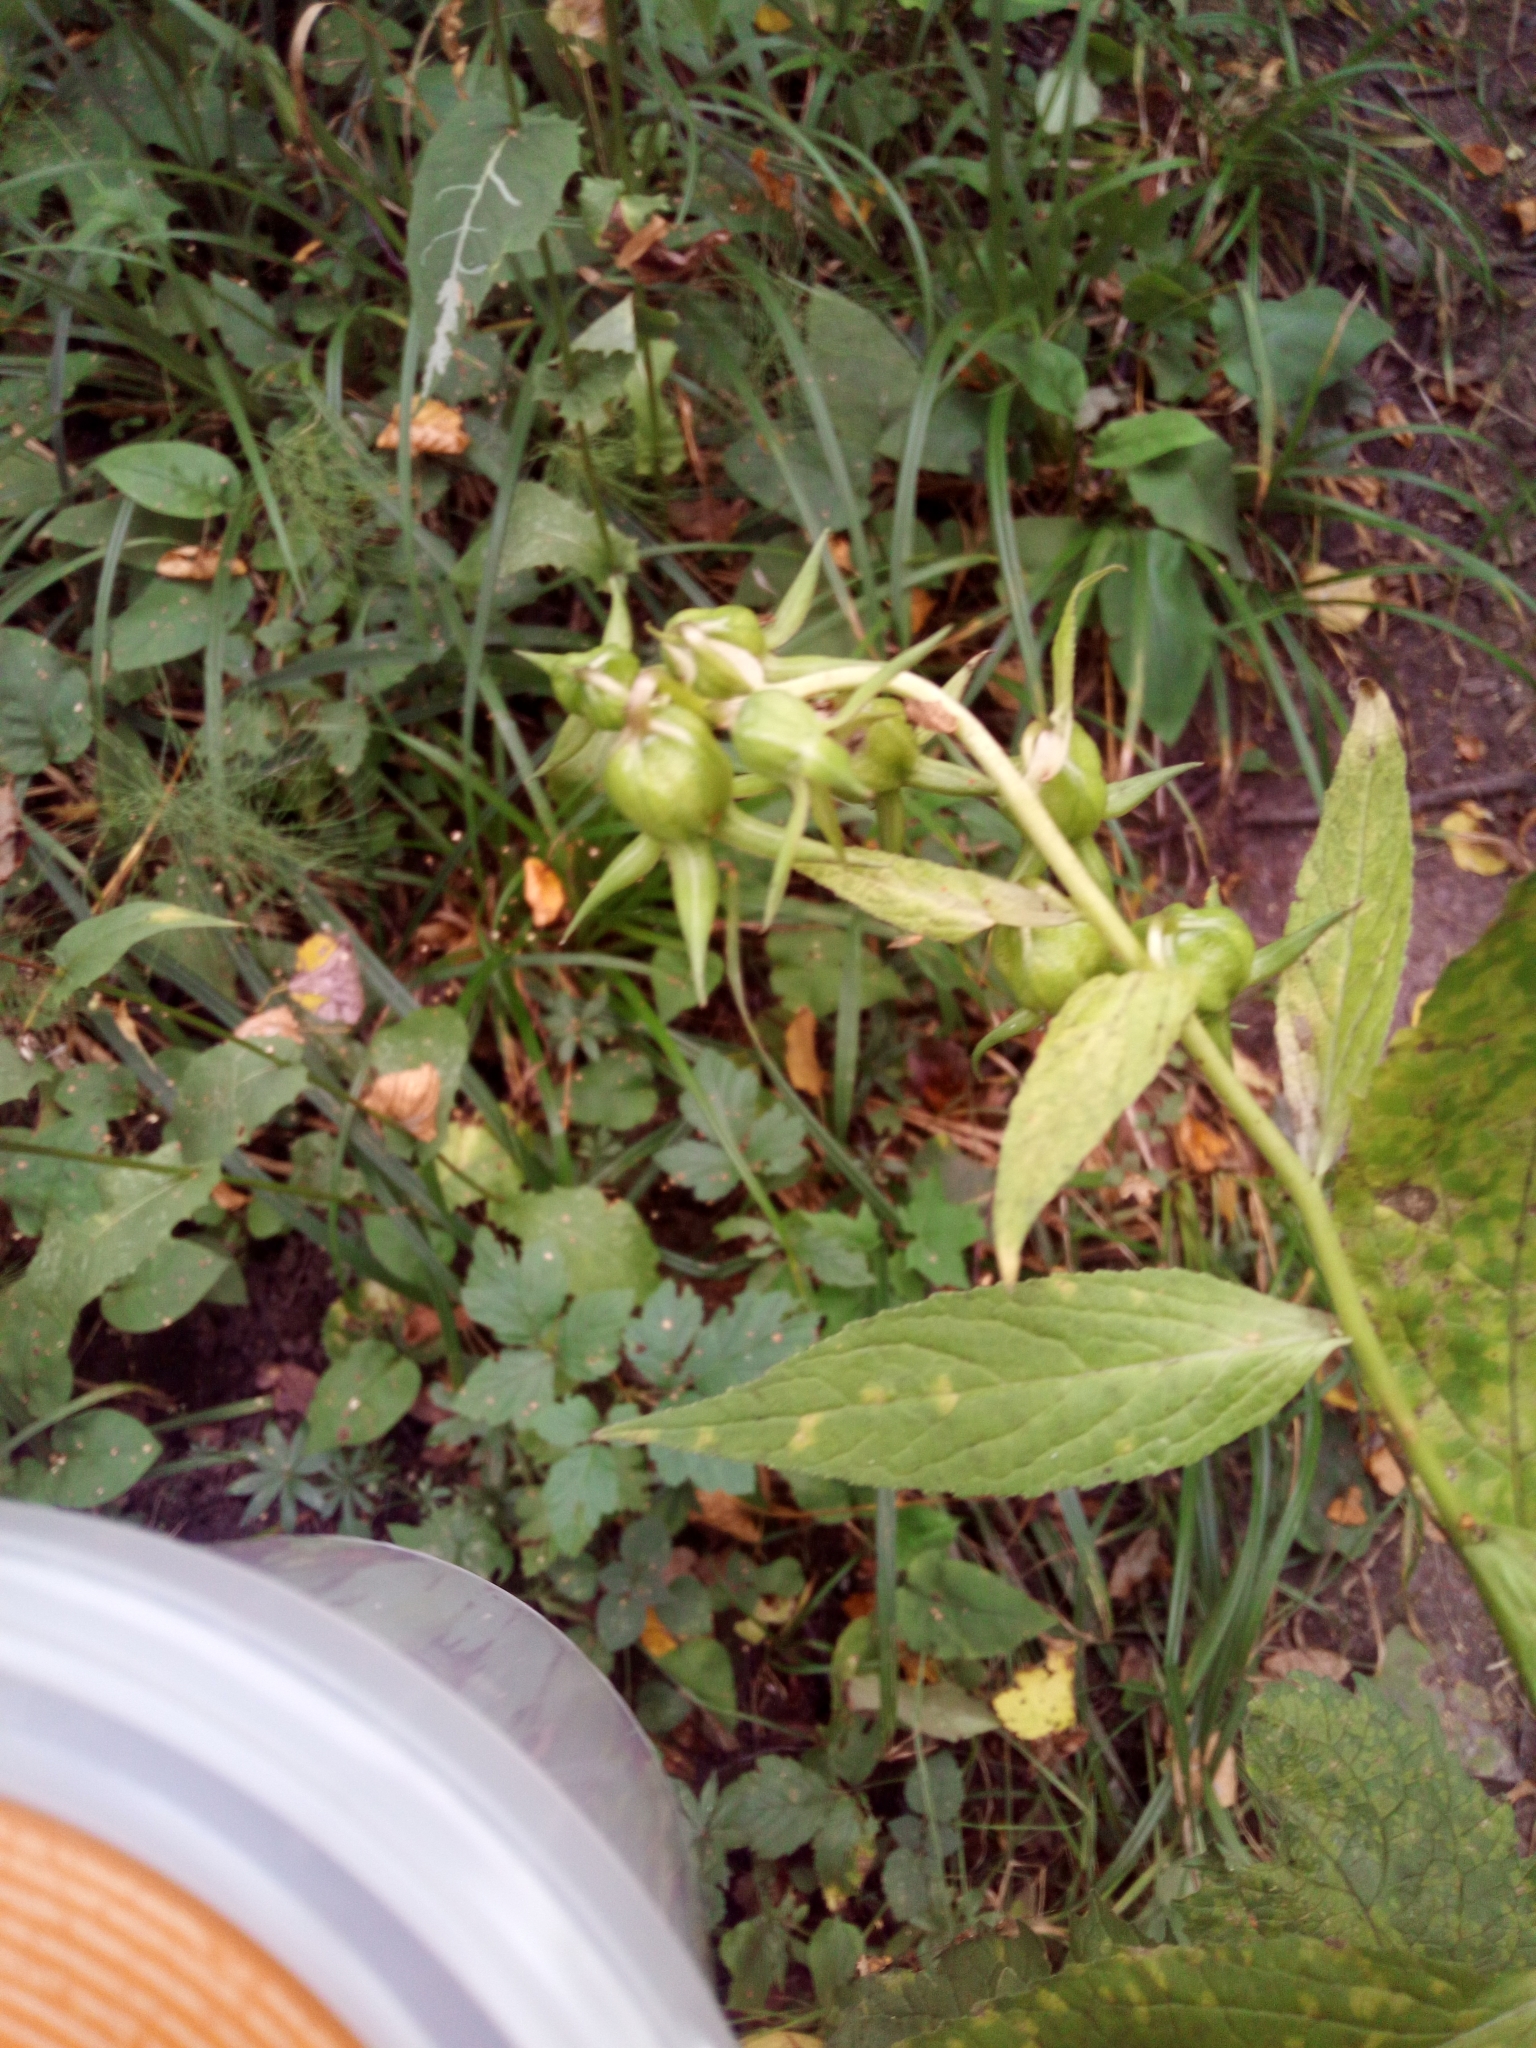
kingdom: Plantae
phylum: Tracheophyta
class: Magnoliopsida
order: Asterales
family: Campanulaceae
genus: Campanula
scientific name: Campanula latifolia
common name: Giant bellflower
